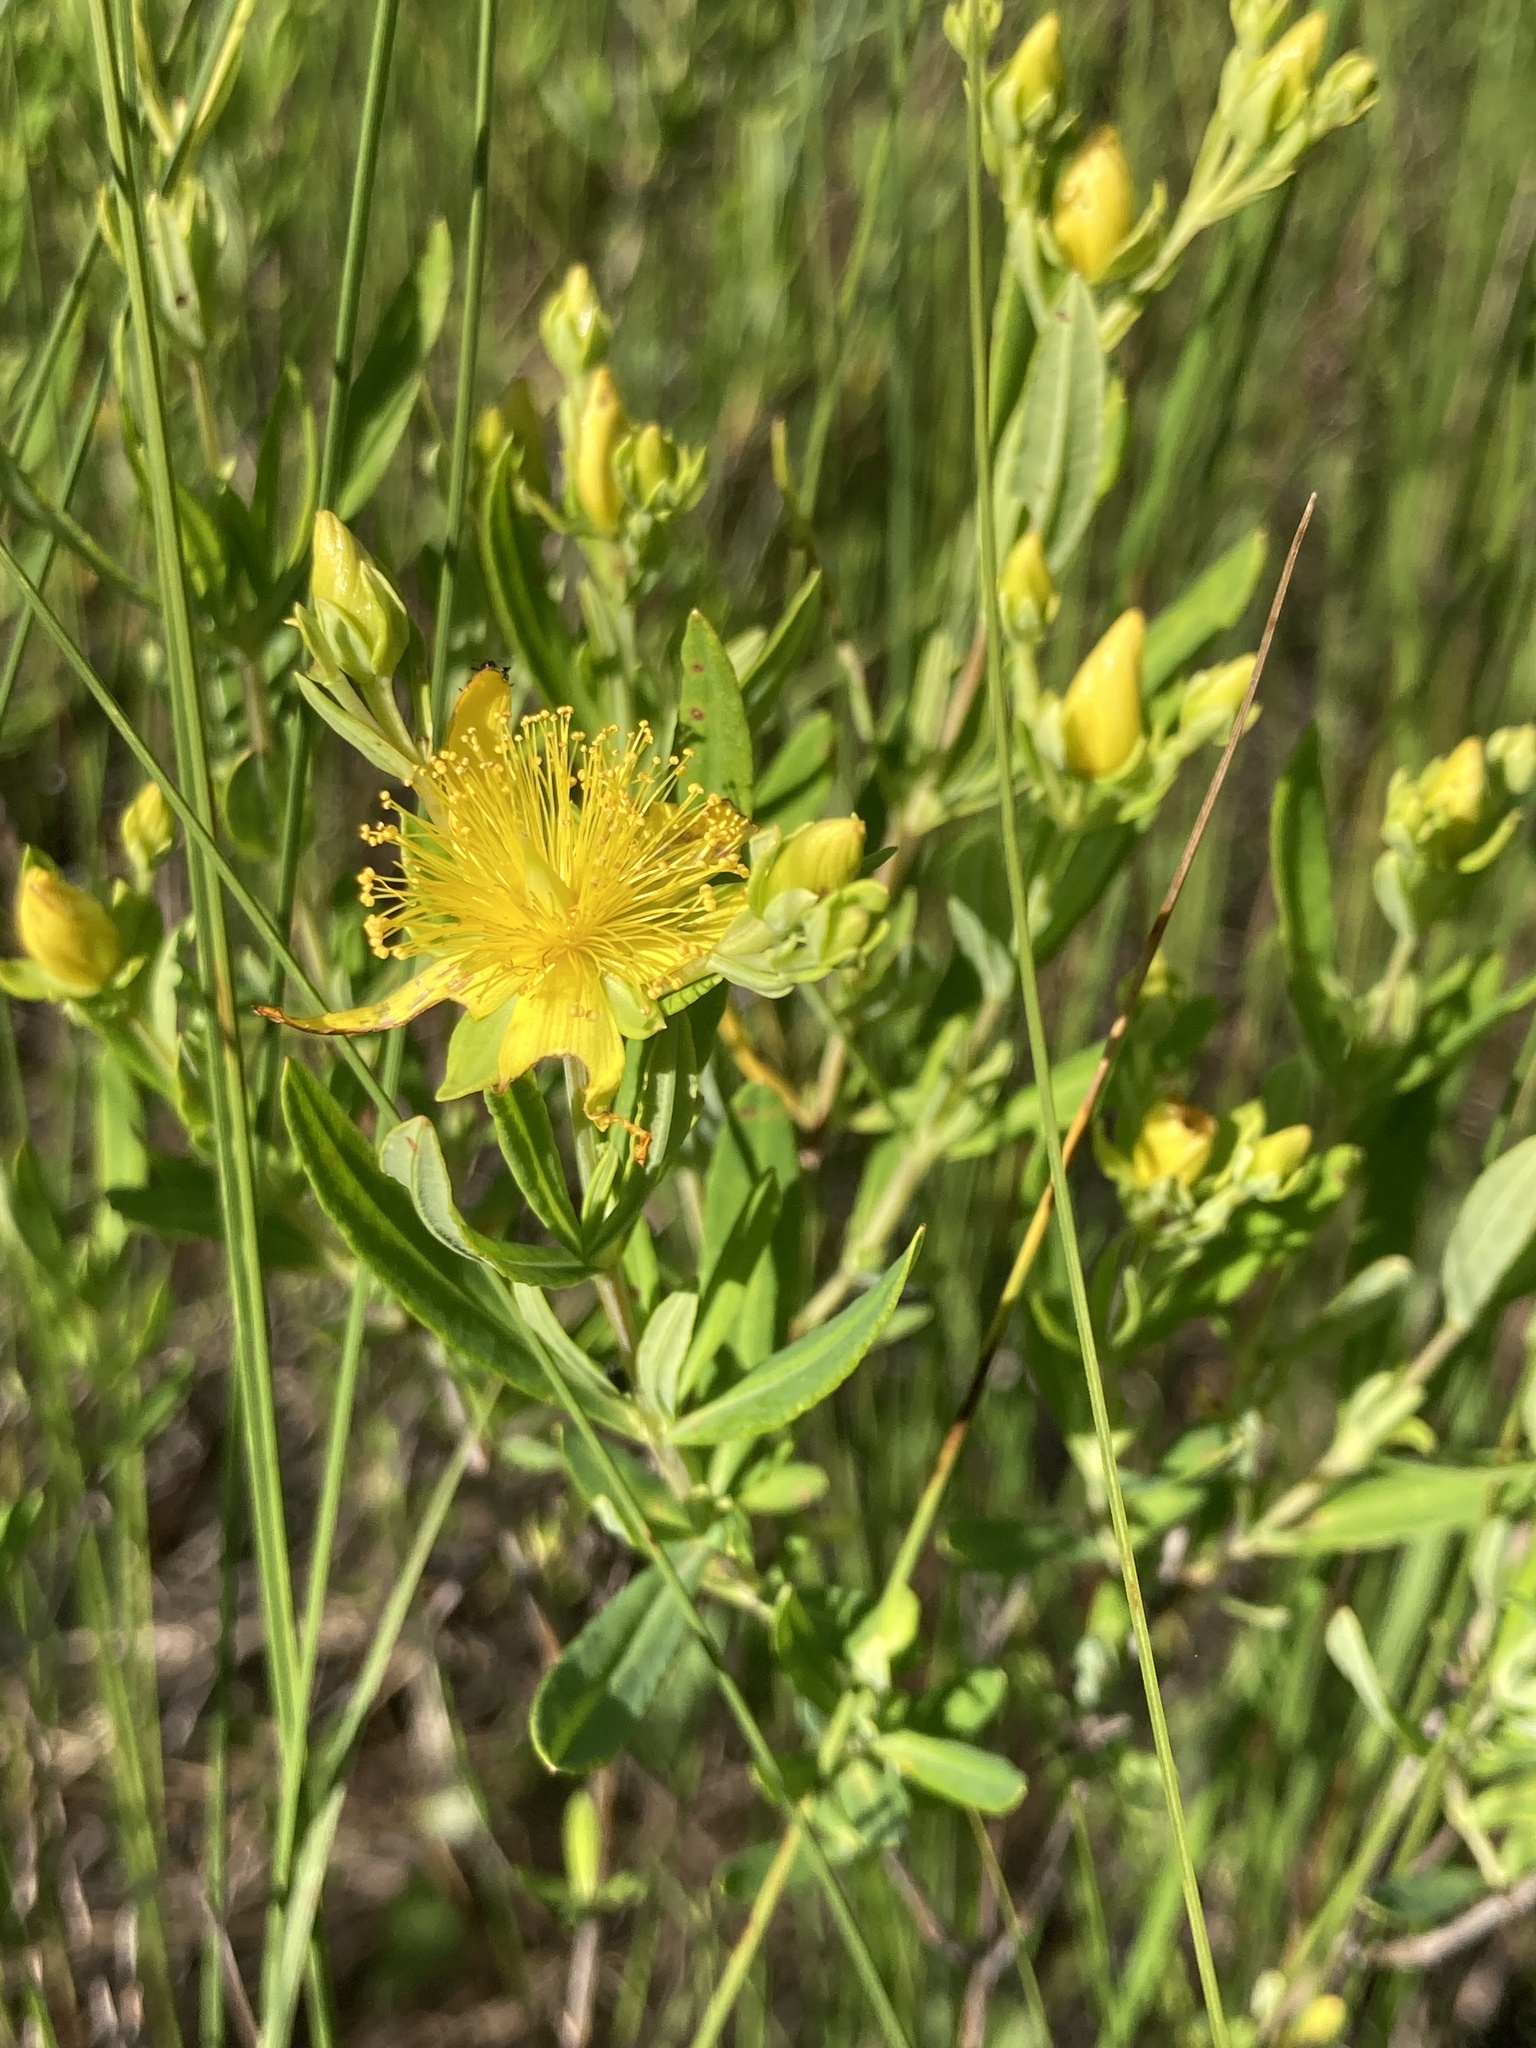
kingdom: Plantae
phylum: Tracheophyta
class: Magnoliopsida
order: Malpighiales
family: Hypericaceae
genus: Hypericum
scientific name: Hypericum kalmianum
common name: Kalm's st. john's-wort
